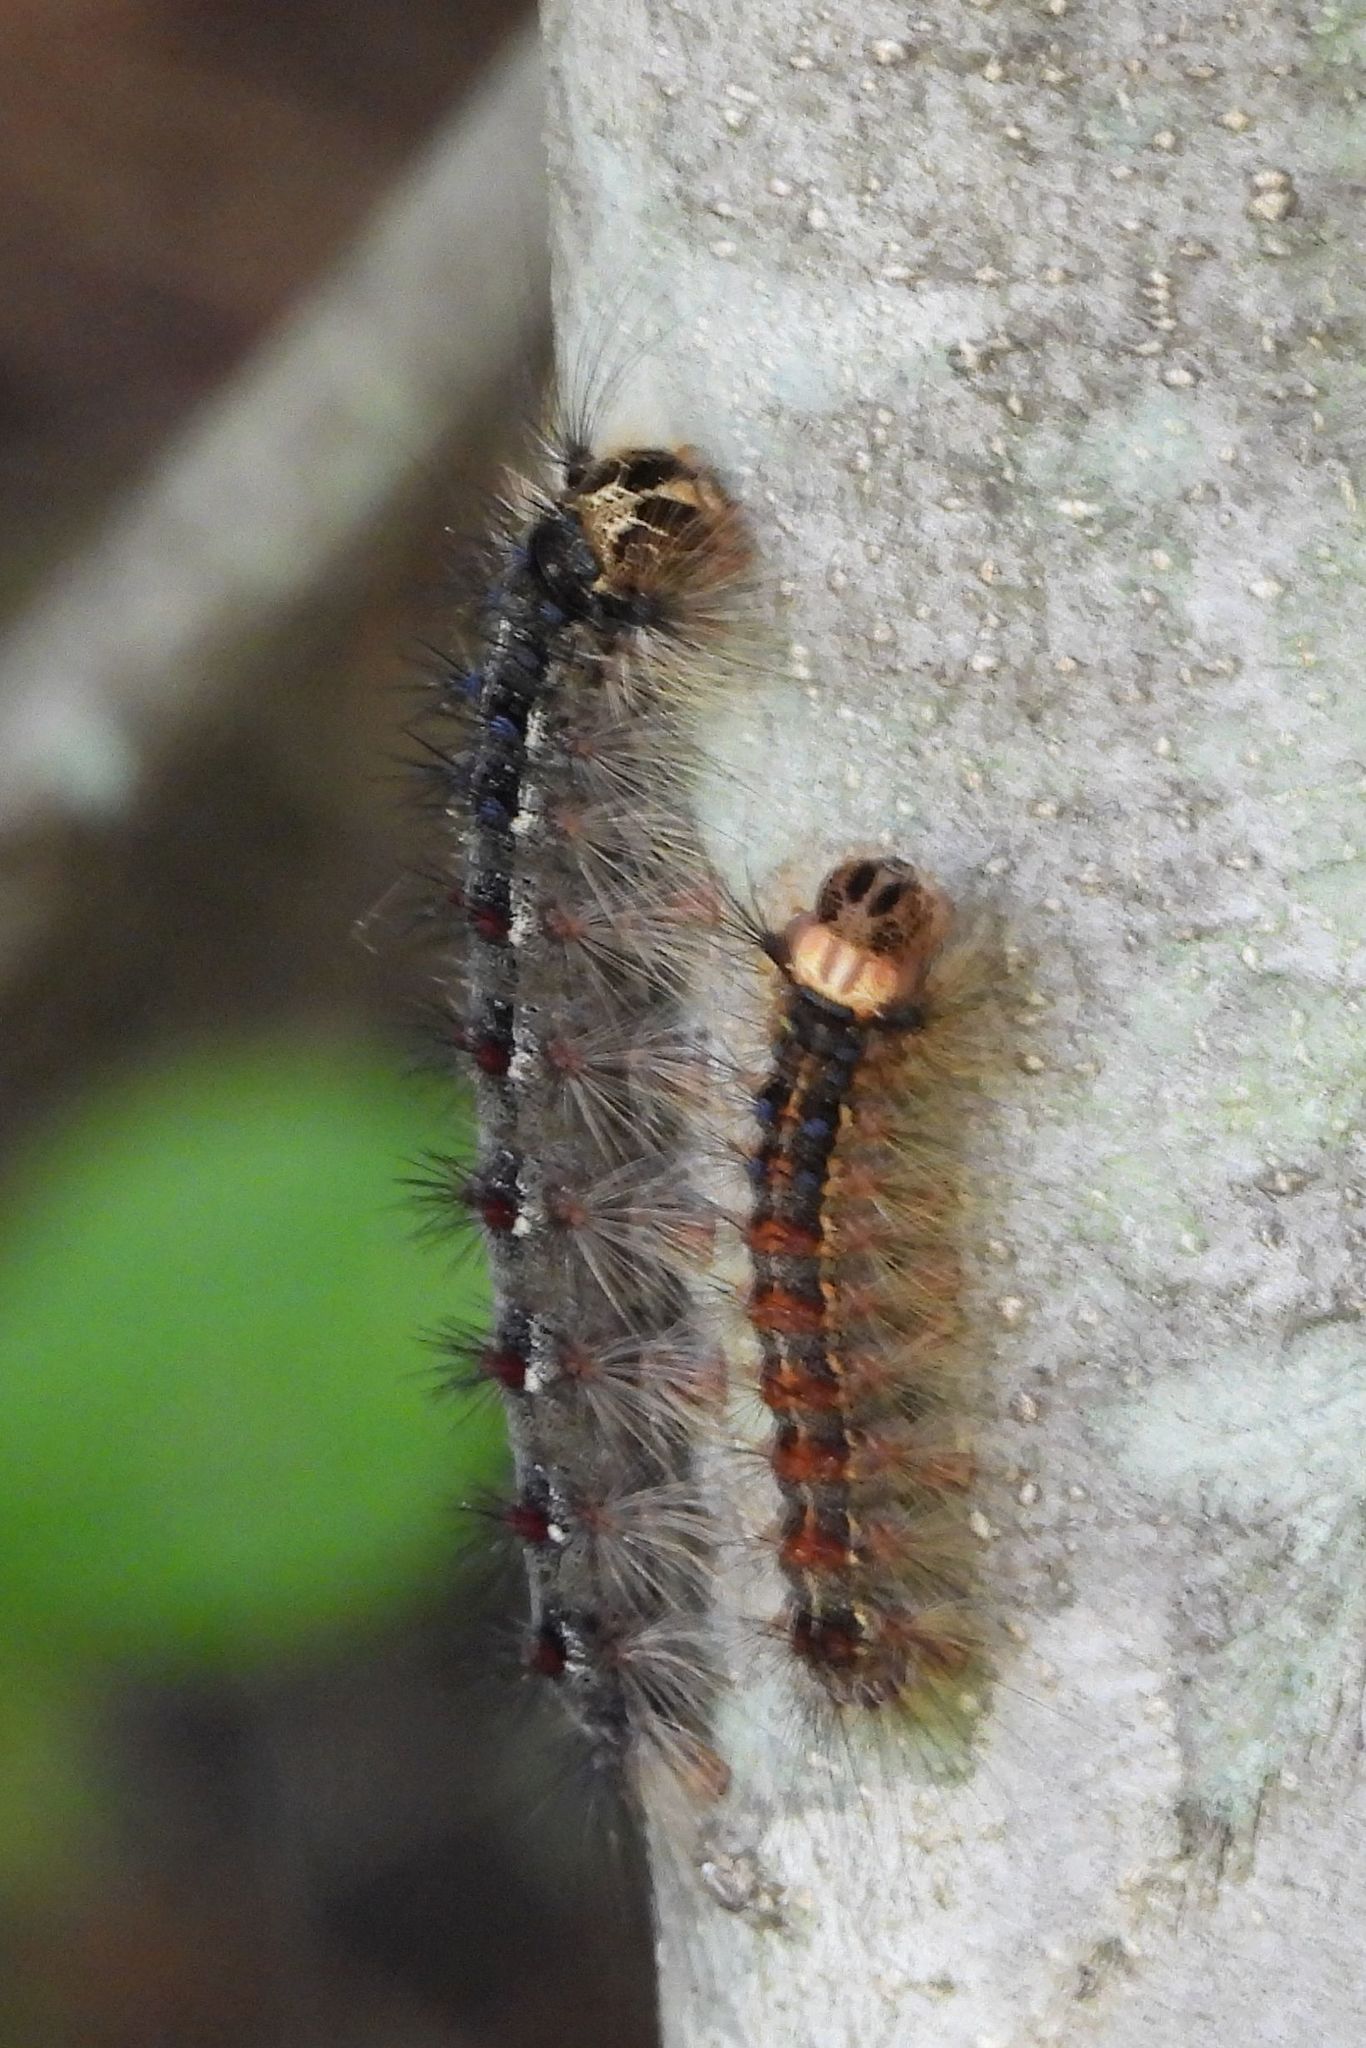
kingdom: Animalia
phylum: Arthropoda
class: Insecta
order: Lepidoptera
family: Erebidae
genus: Lymantria
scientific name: Lymantria dispar
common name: Gypsy moth
